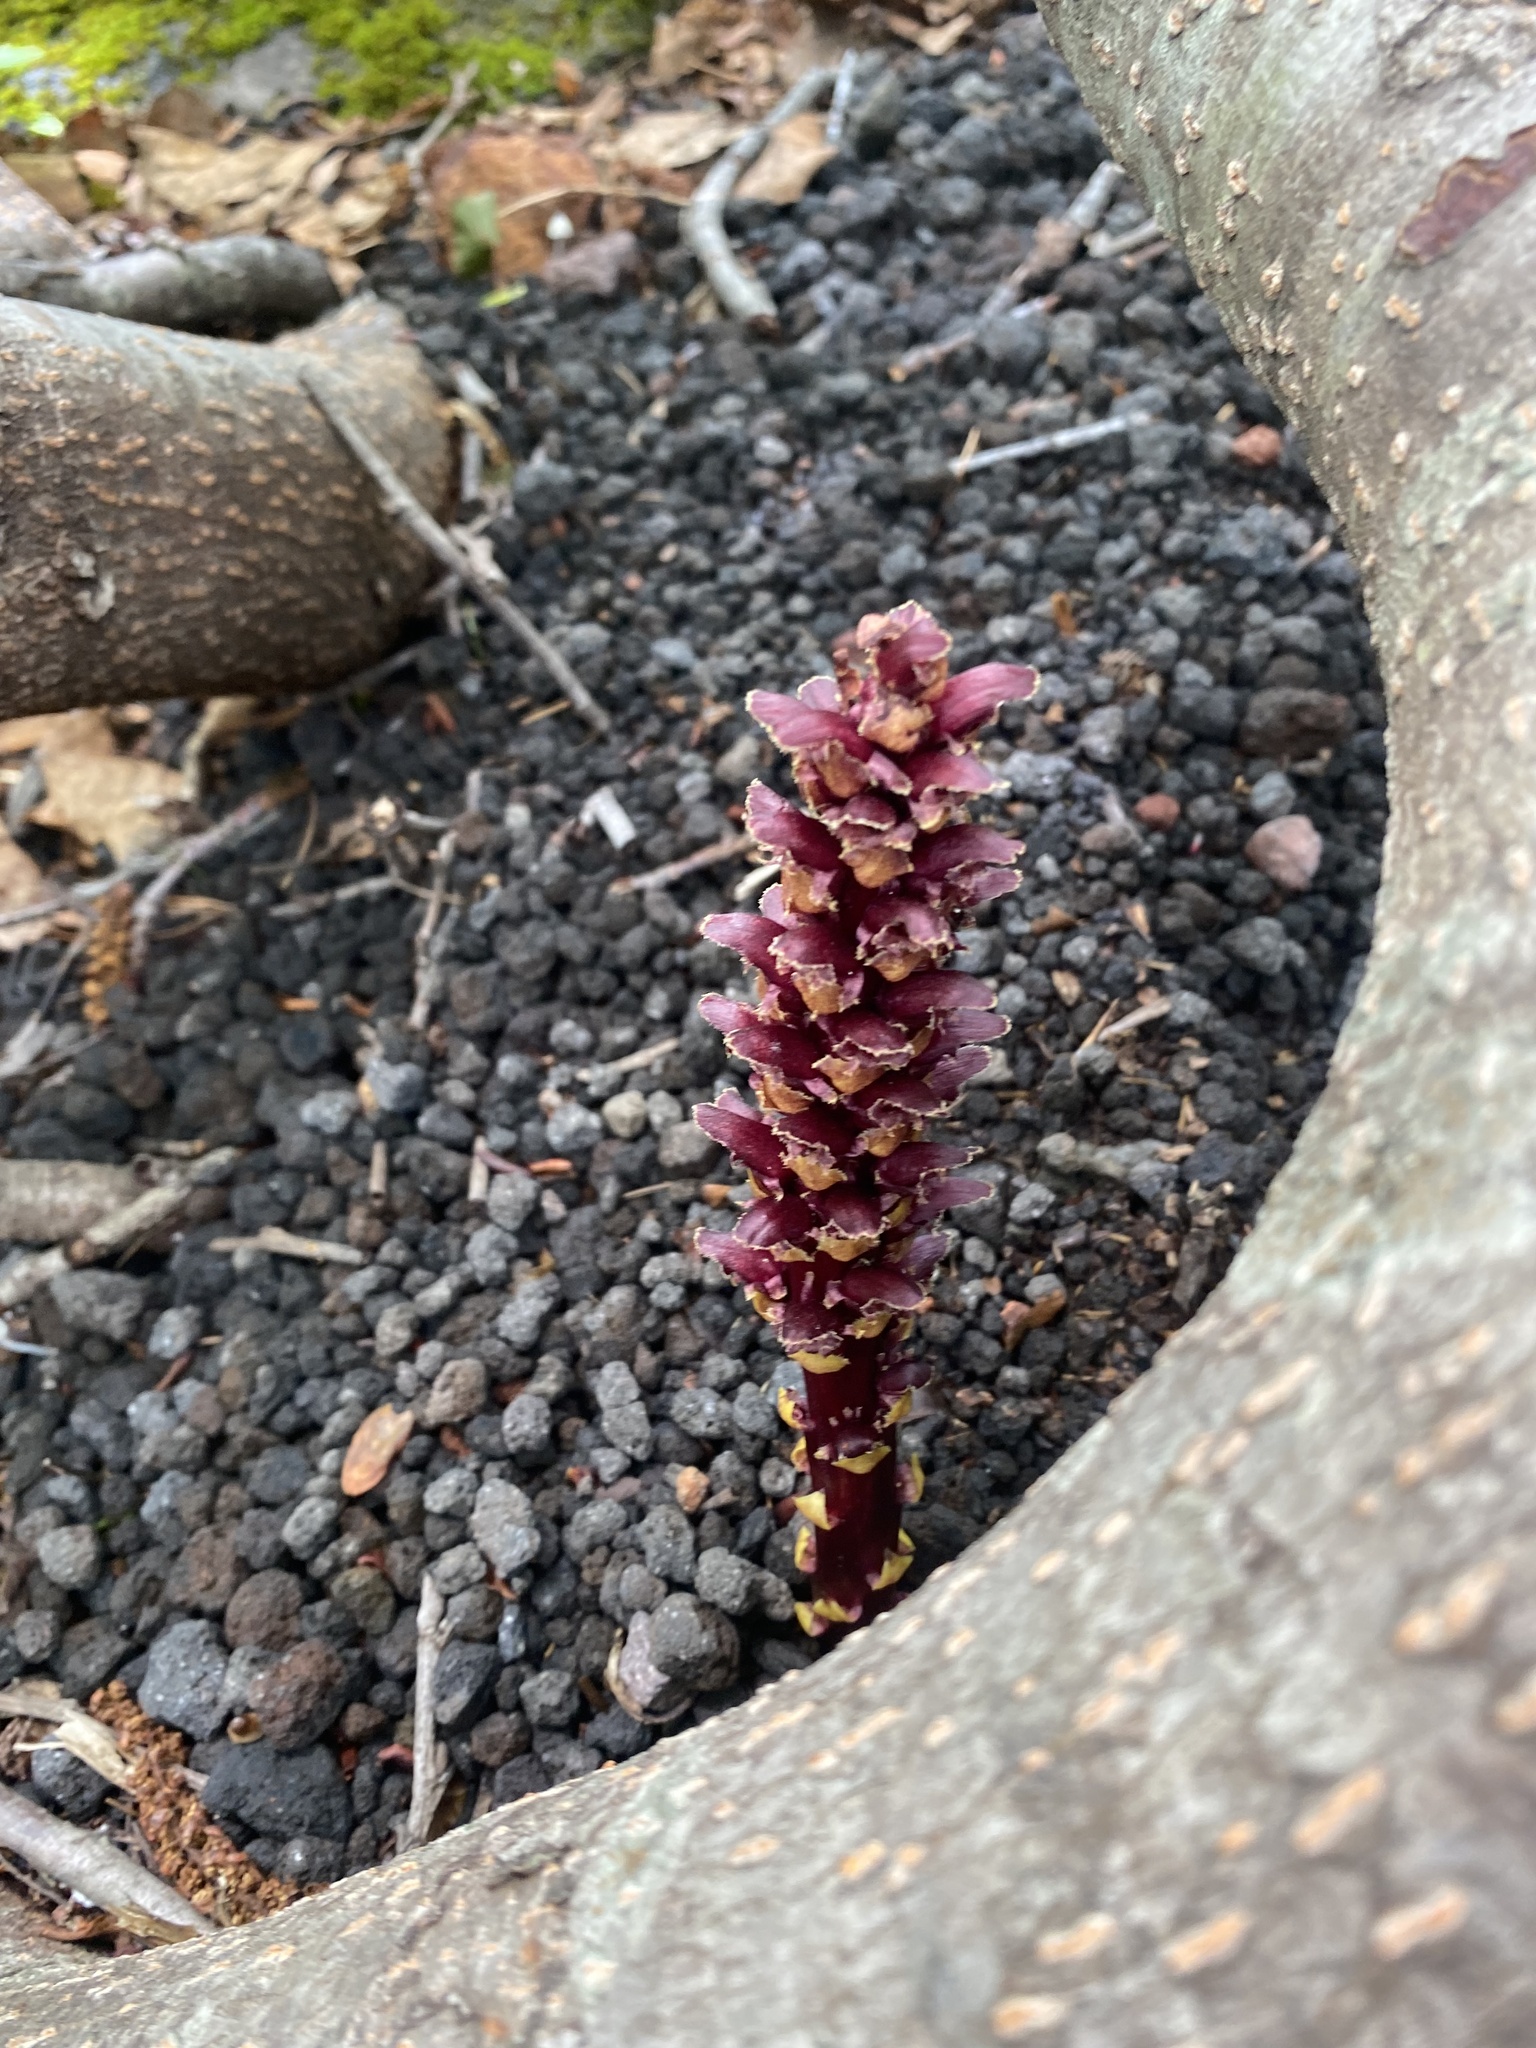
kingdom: Plantae
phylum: Tracheophyta
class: Magnoliopsida
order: Lamiales
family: Orobanchaceae
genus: Boschniakia
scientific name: Boschniakia rossica
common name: Poque
